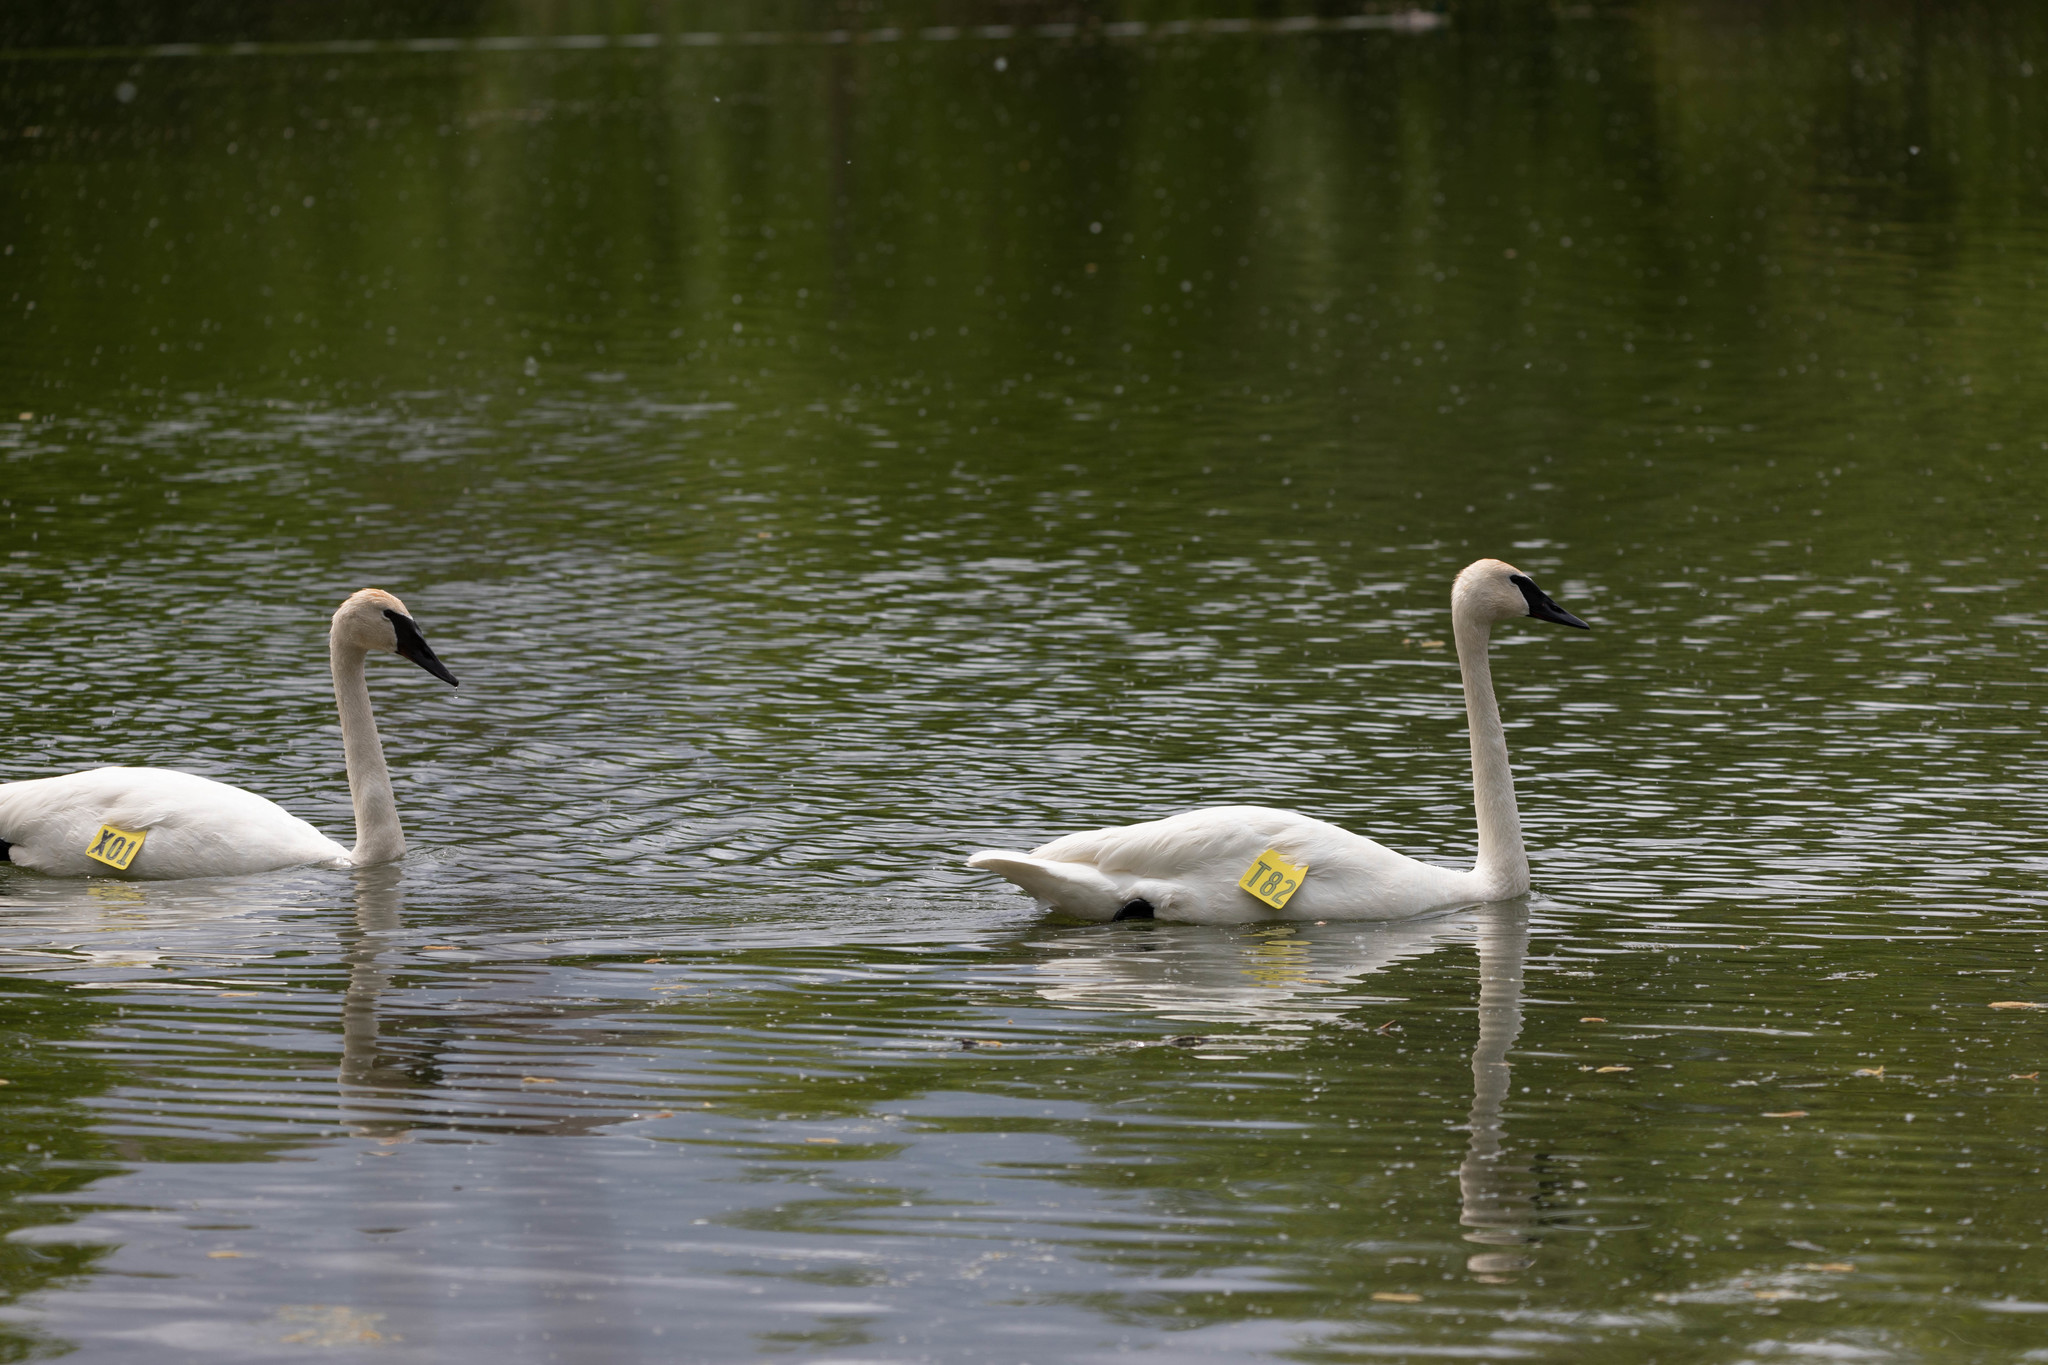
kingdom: Animalia
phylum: Chordata
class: Aves
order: Anseriformes
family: Anatidae
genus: Cygnus
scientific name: Cygnus buccinator
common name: Trumpeter swan
